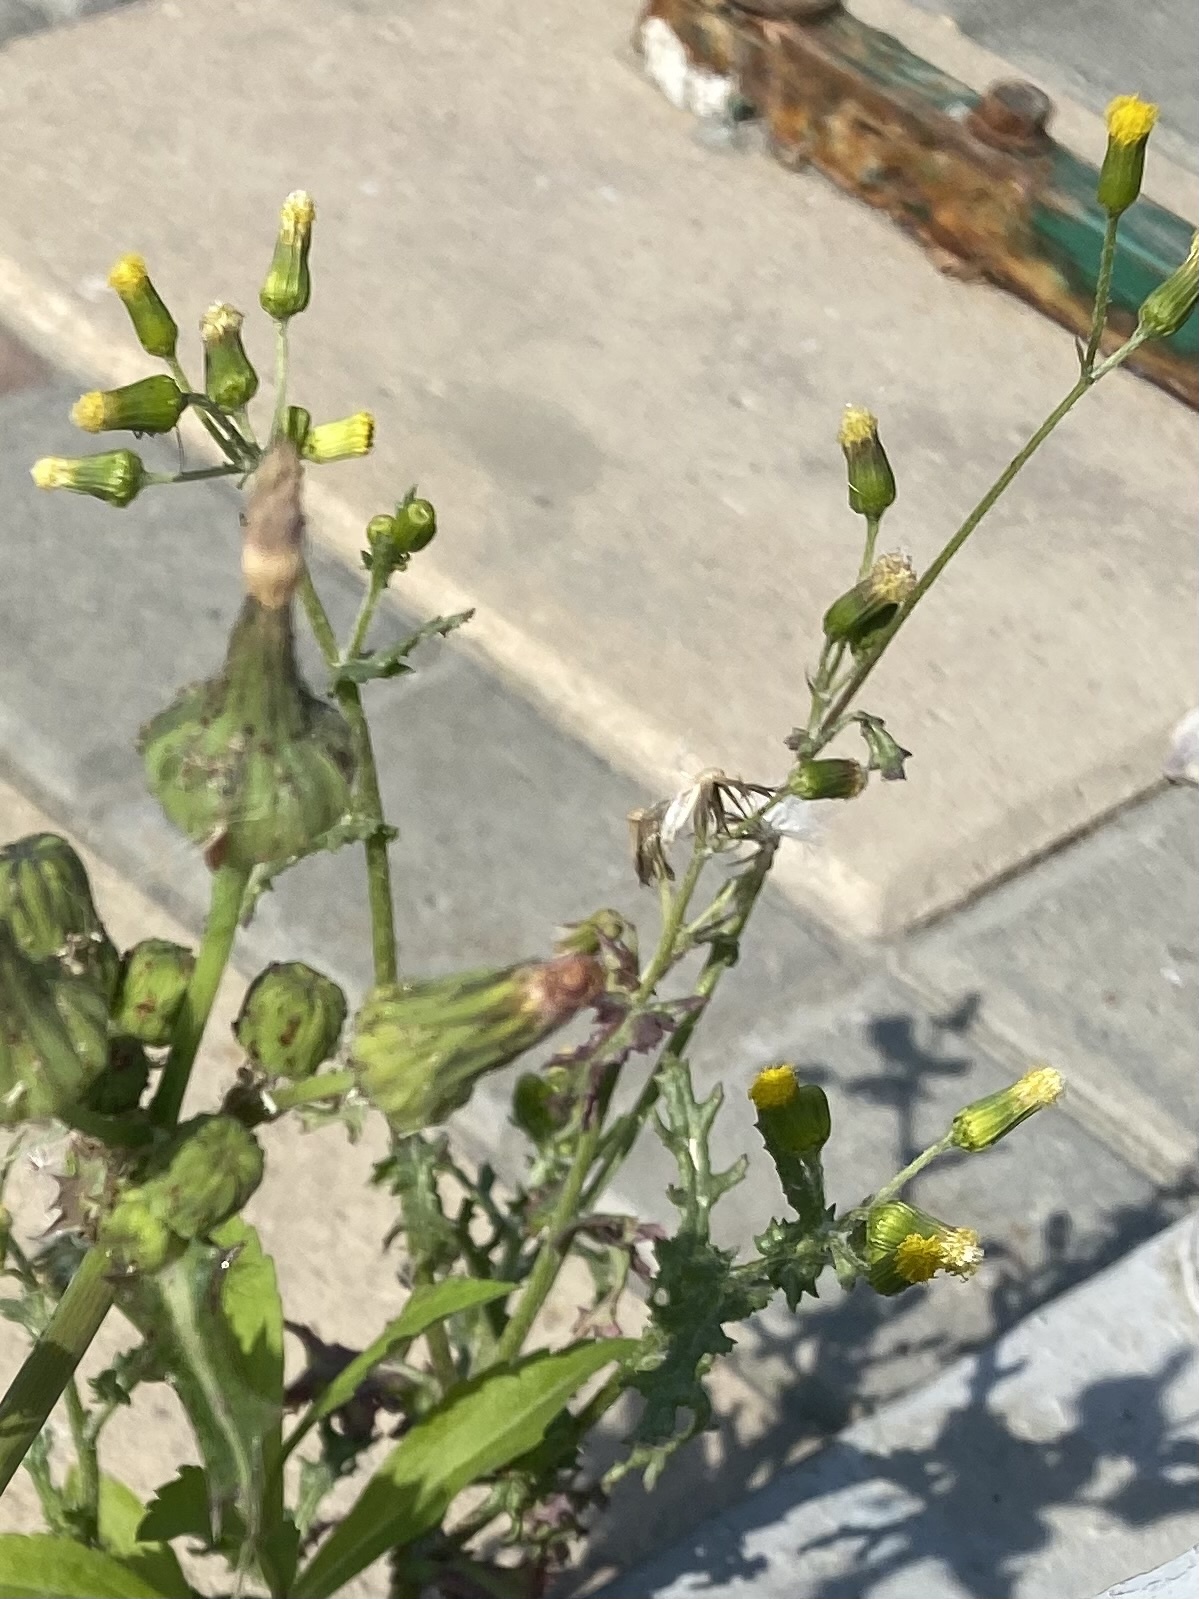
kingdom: Plantae
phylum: Tracheophyta
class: Magnoliopsida
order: Asterales
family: Asteraceae
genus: Senecio
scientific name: Senecio vulgaris
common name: Old-man-in-the-spring
